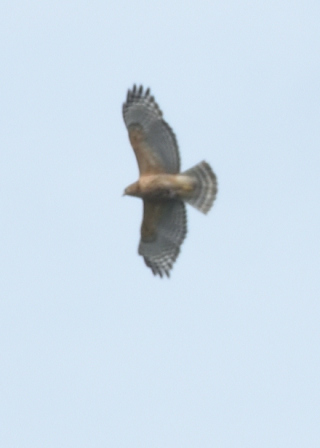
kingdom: Animalia
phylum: Chordata
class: Aves
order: Accipitriformes
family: Accipitridae
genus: Buteo
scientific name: Buteo lineatus
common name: Red-shouldered hawk
